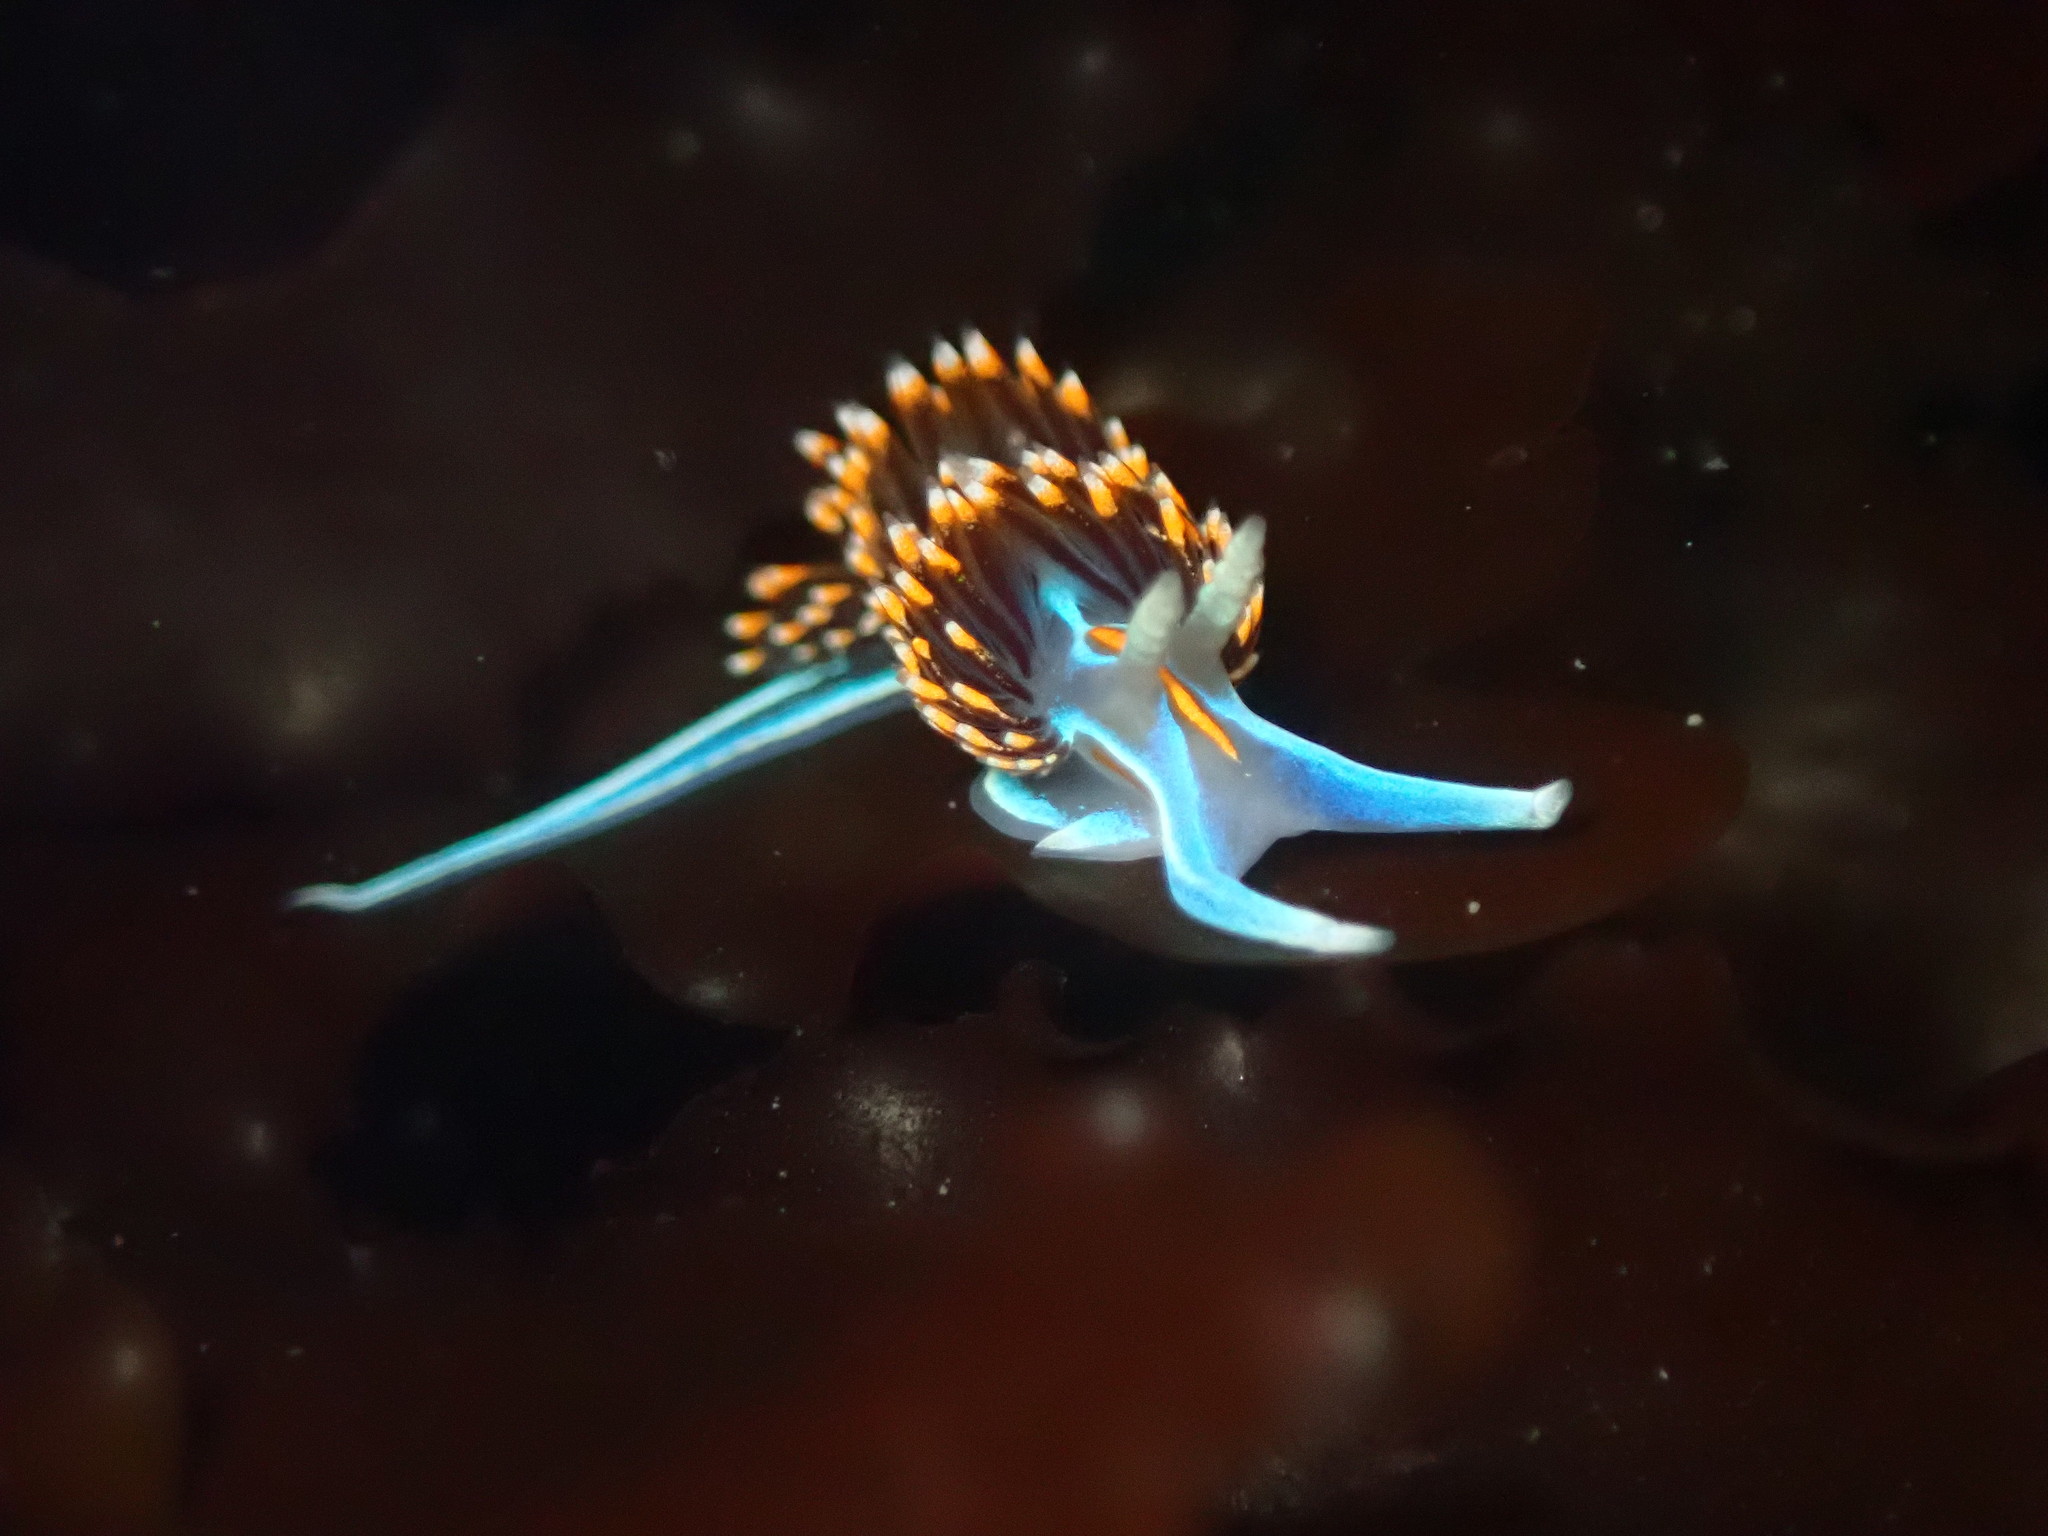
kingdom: Animalia
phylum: Mollusca
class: Gastropoda
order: Nudibranchia
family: Myrrhinidae
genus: Hermissenda
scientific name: Hermissenda opalescens
